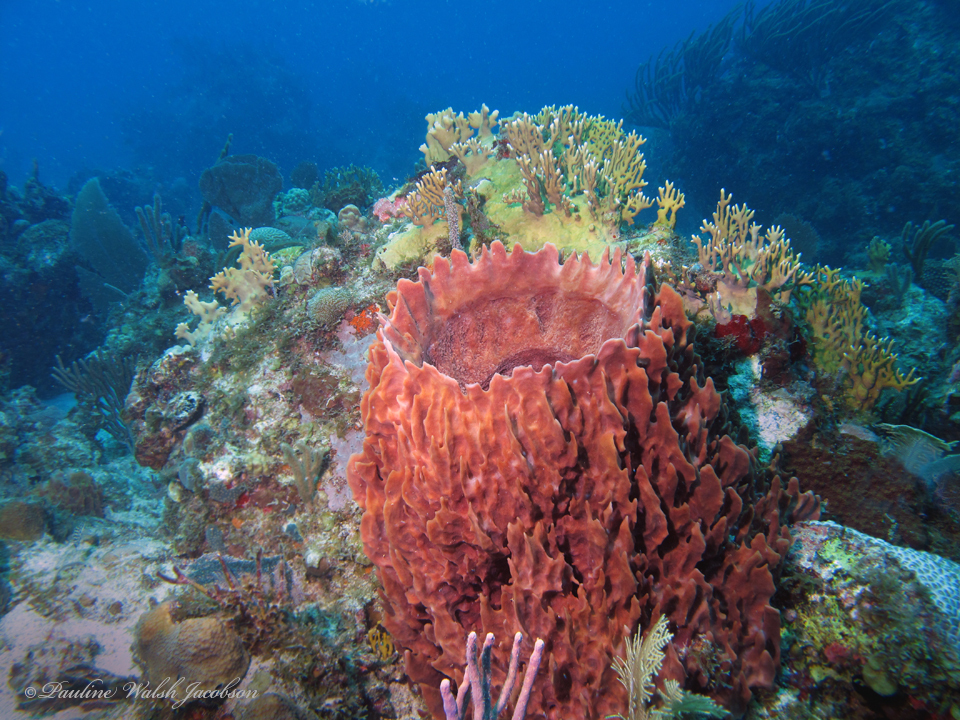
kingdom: Animalia
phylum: Porifera
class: Demospongiae
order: Haplosclerida
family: Petrosiidae
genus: Xestospongia
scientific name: Xestospongia muta
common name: Giant barrel sponge
